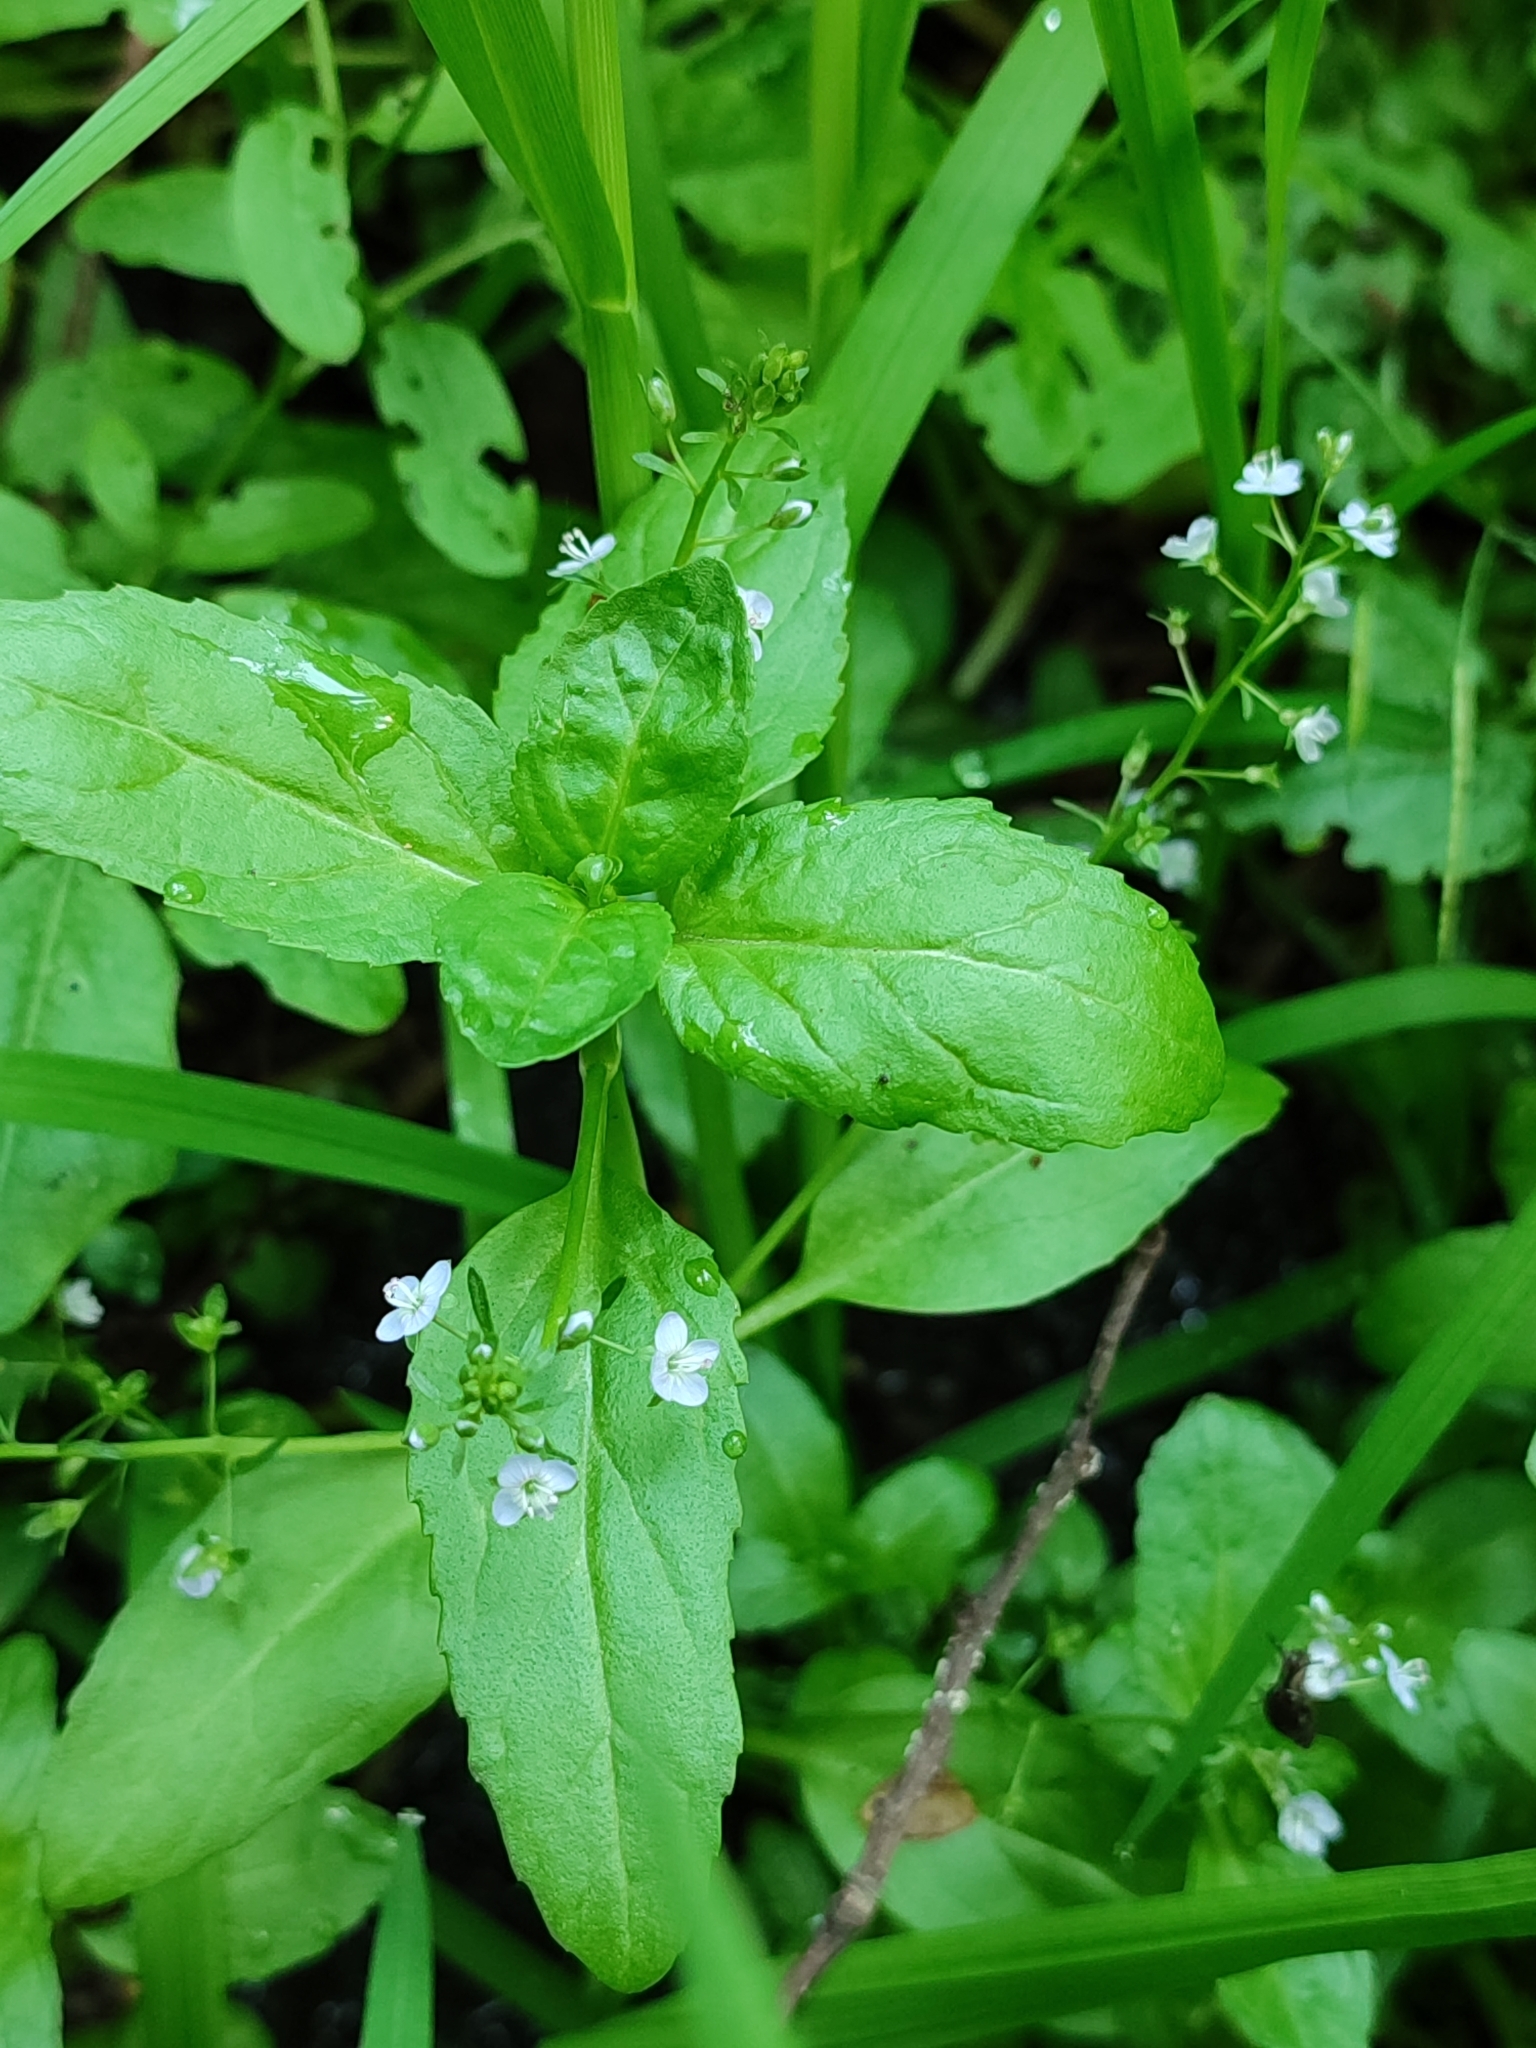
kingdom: Plantae
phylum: Tracheophyta
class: Magnoliopsida
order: Lamiales
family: Plantaginaceae
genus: Veronica
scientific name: Veronica beccabunga
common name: Brooklime
